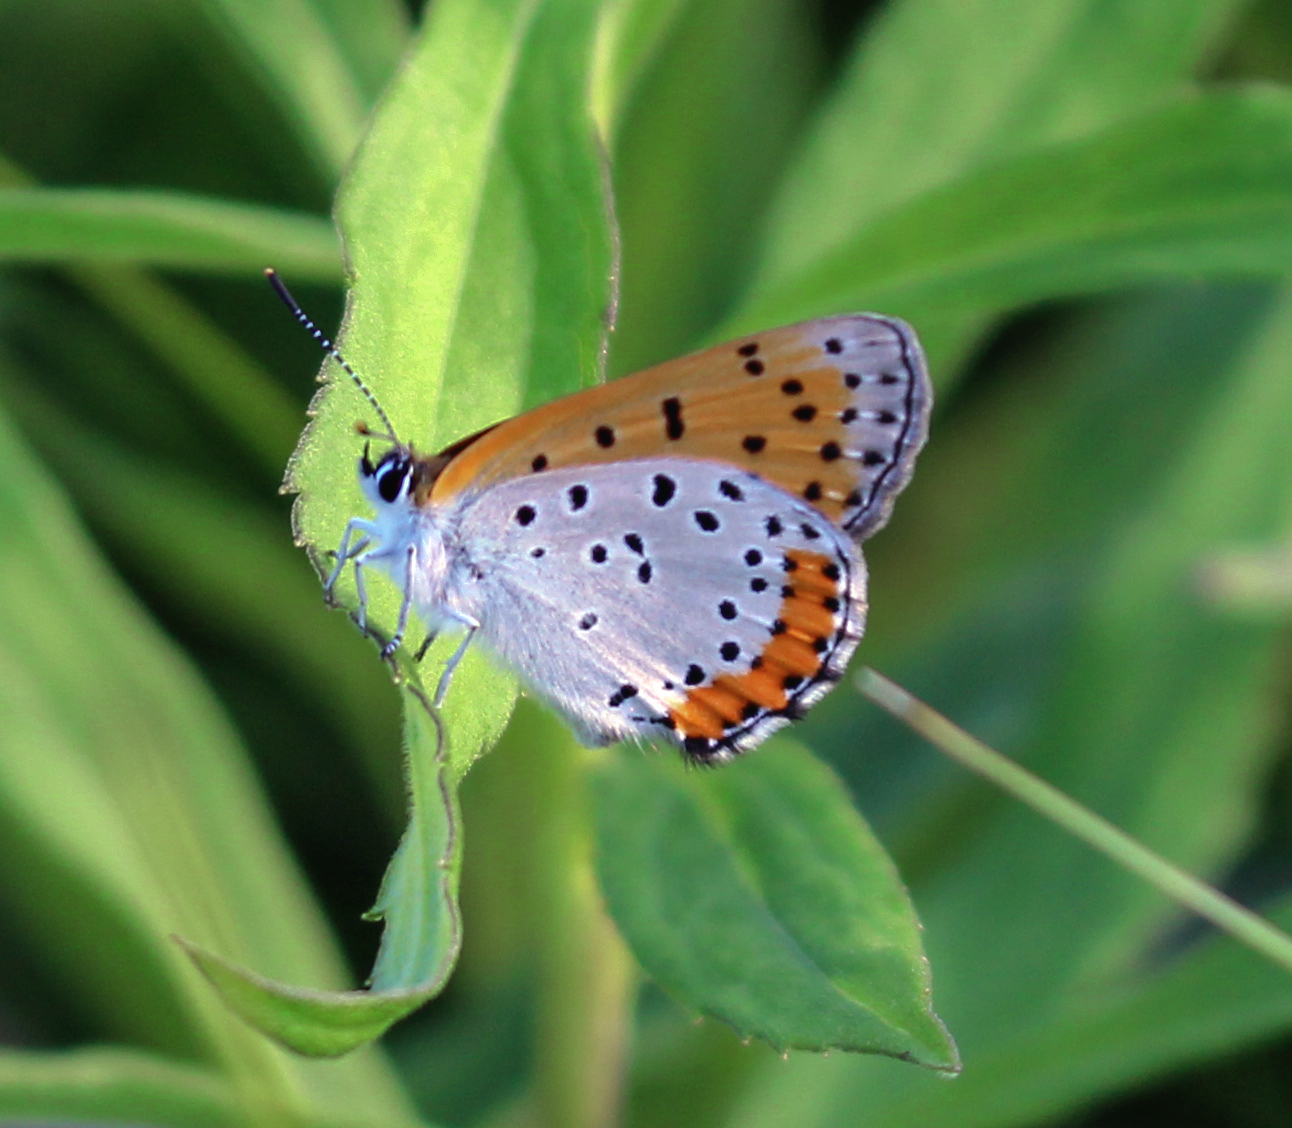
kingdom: Animalia
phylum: Arthropoda
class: Insecta
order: Lepidoptera
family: Lycaenidae
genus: Tharsalea
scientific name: Tharsalea hyllus
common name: Bronze copper
